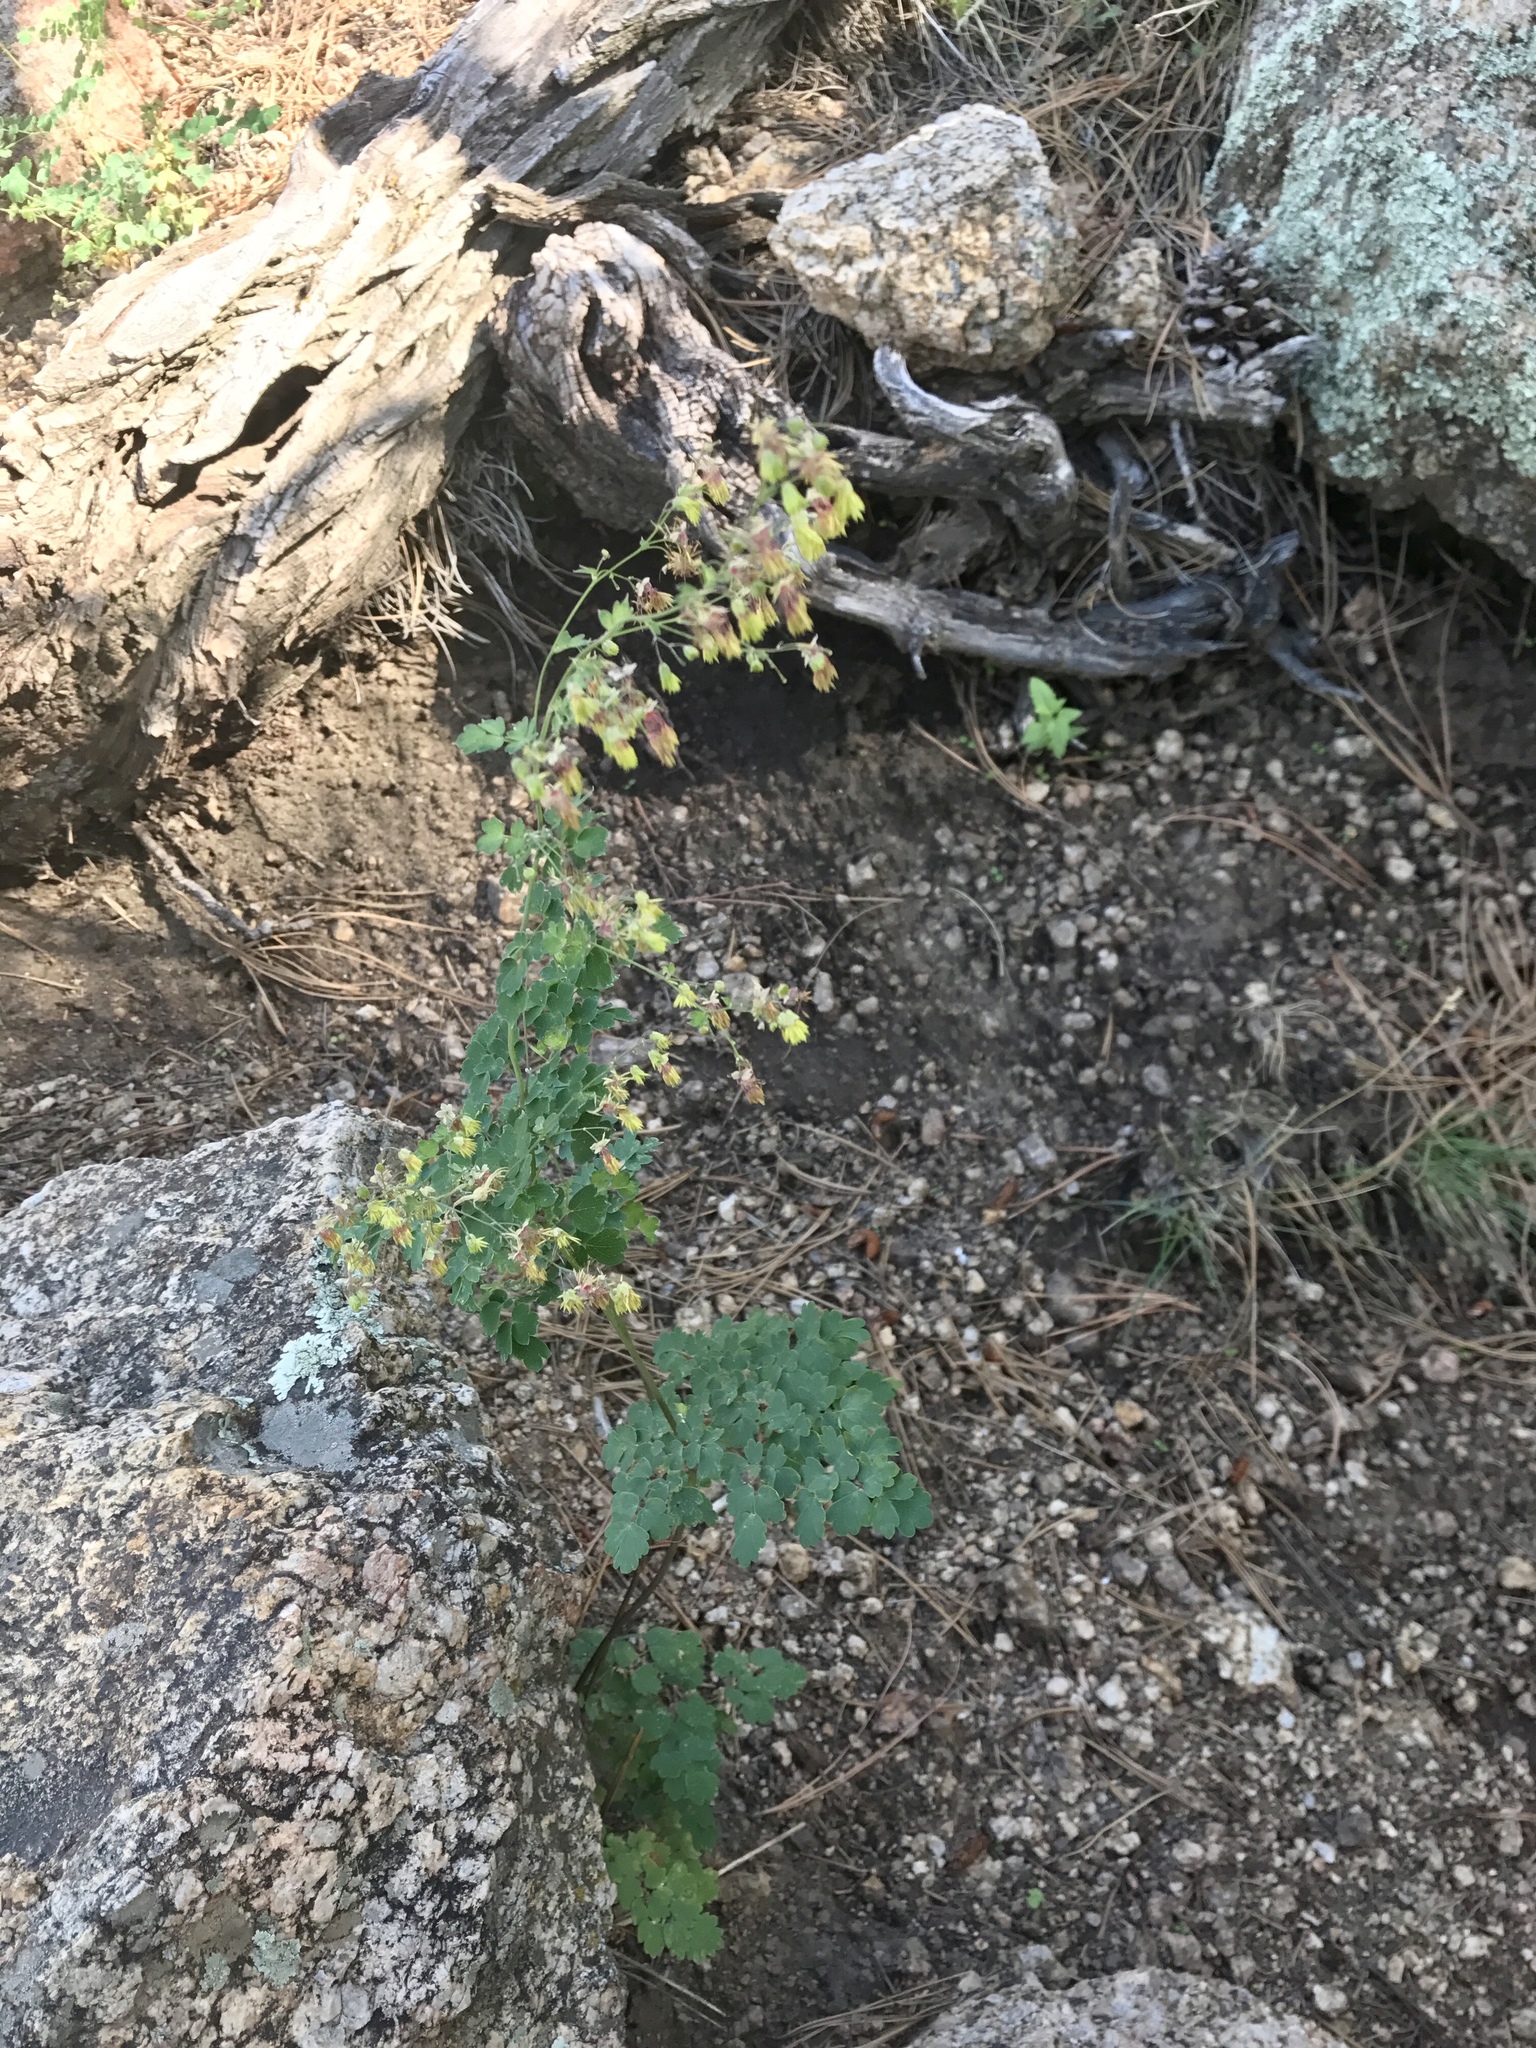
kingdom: Plantae
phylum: Tracheophyta
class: Magnoliopsida
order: Ranunculales
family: Ranunculaceae
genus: Thalictrum
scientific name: Thalictrum fendleri
